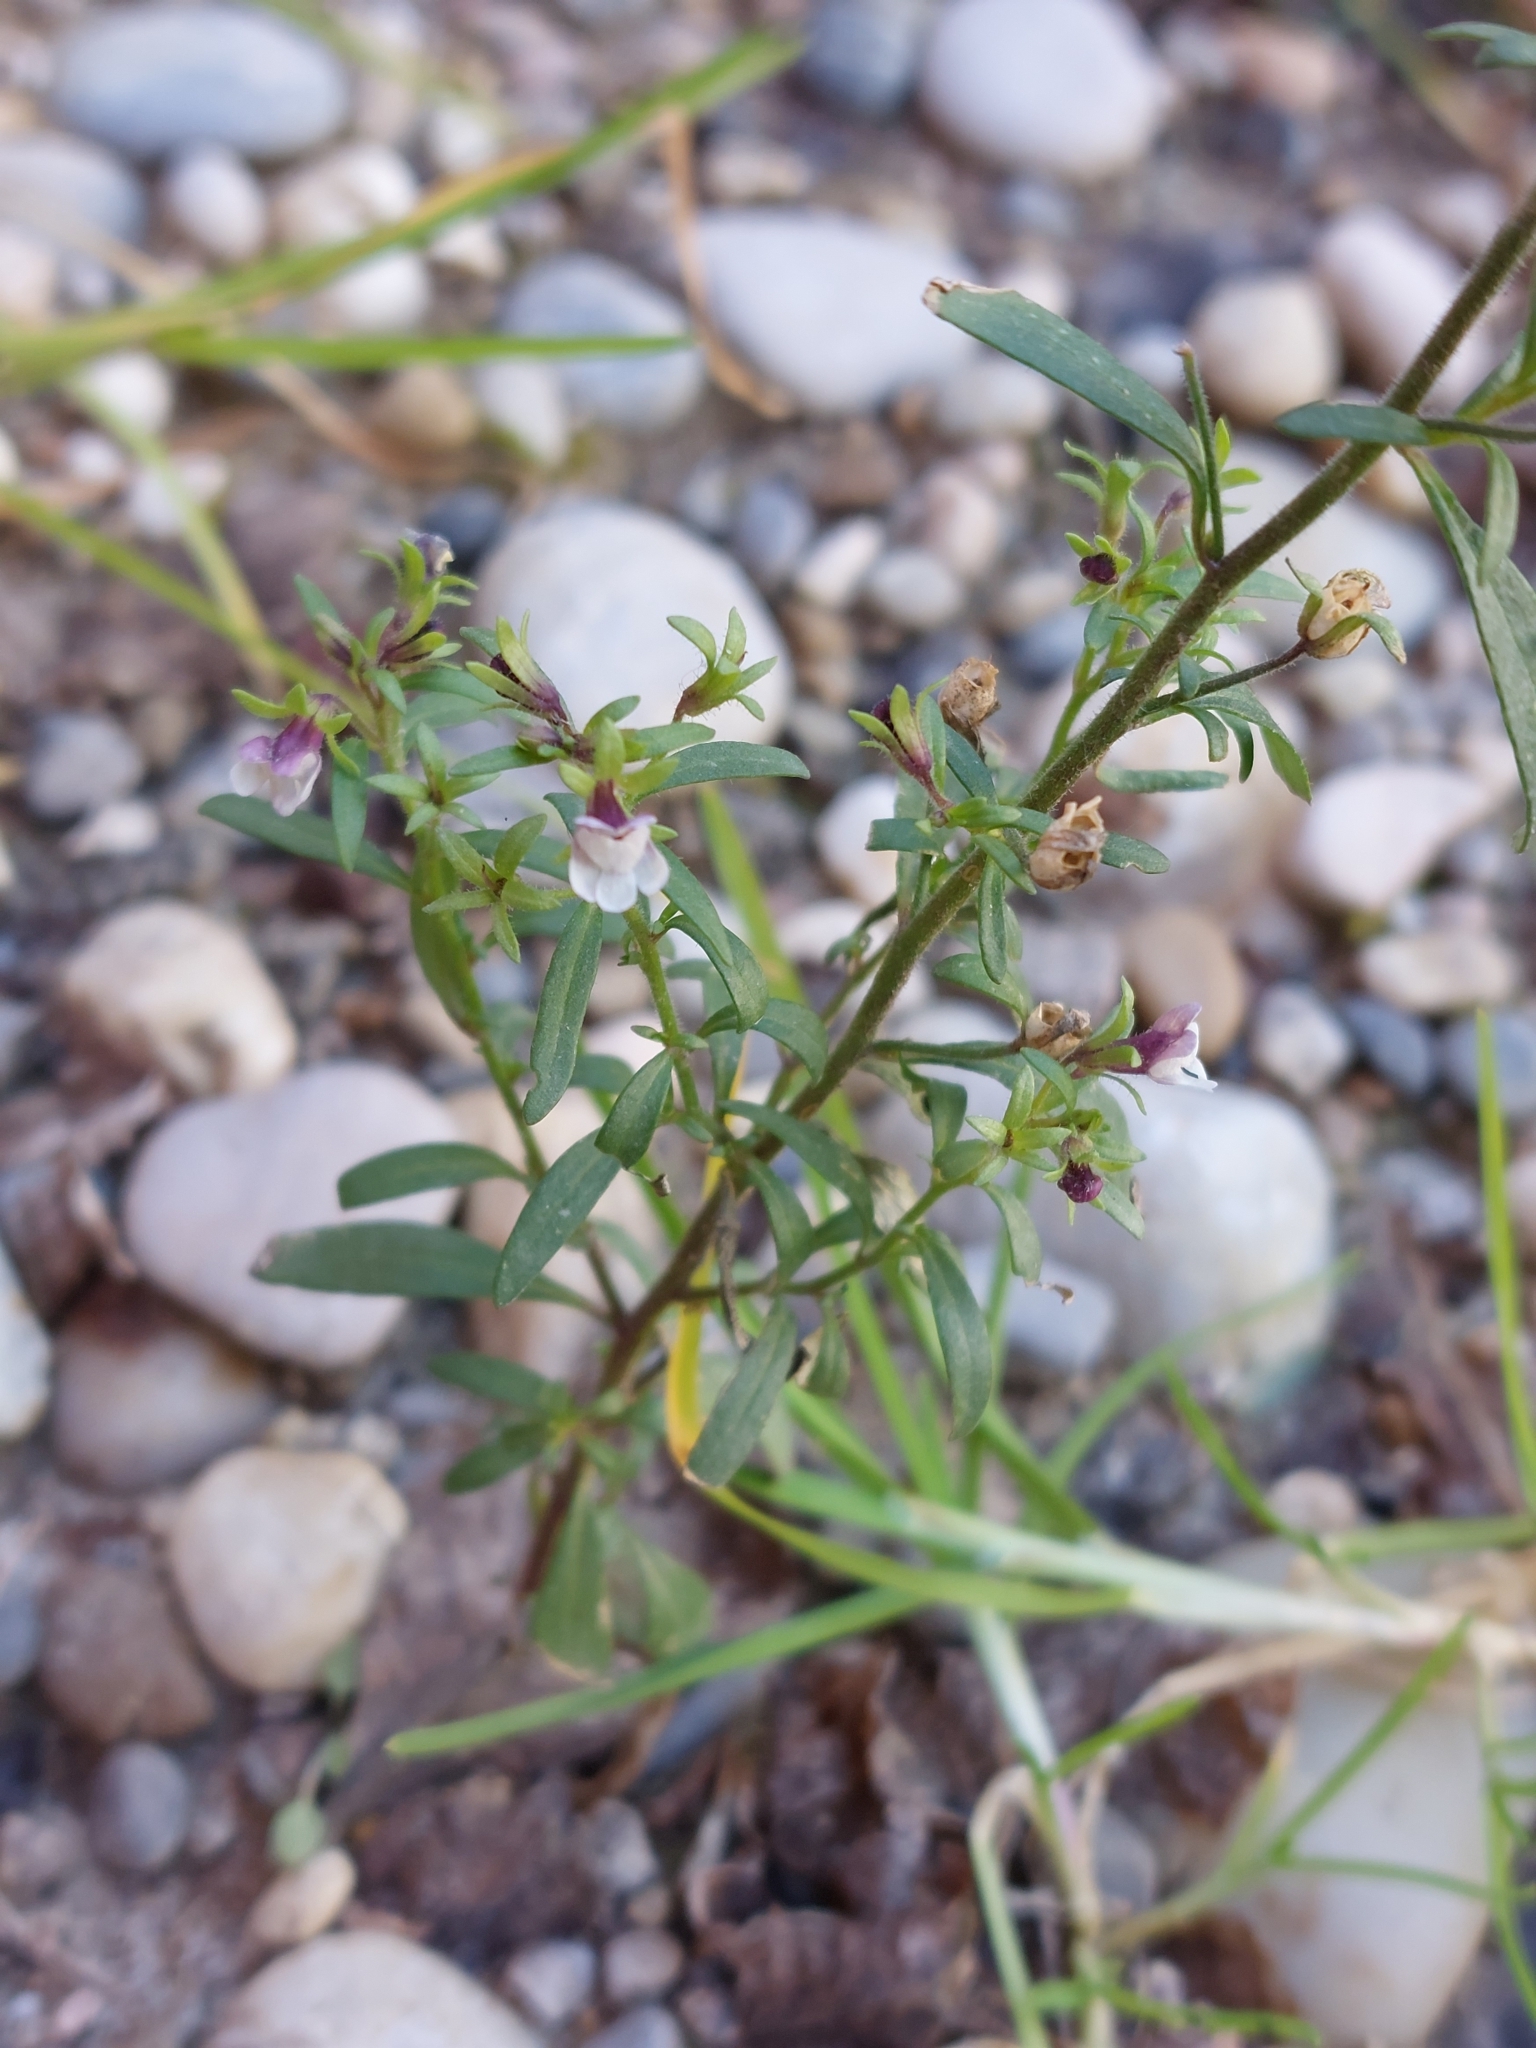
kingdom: Plantae
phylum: Tracheophyta
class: Magnoliopsida
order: Lamiales
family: Plantaginaceae
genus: Chaenorhinum
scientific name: Chaenorhinum minus
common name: Dwarf snapdragon
